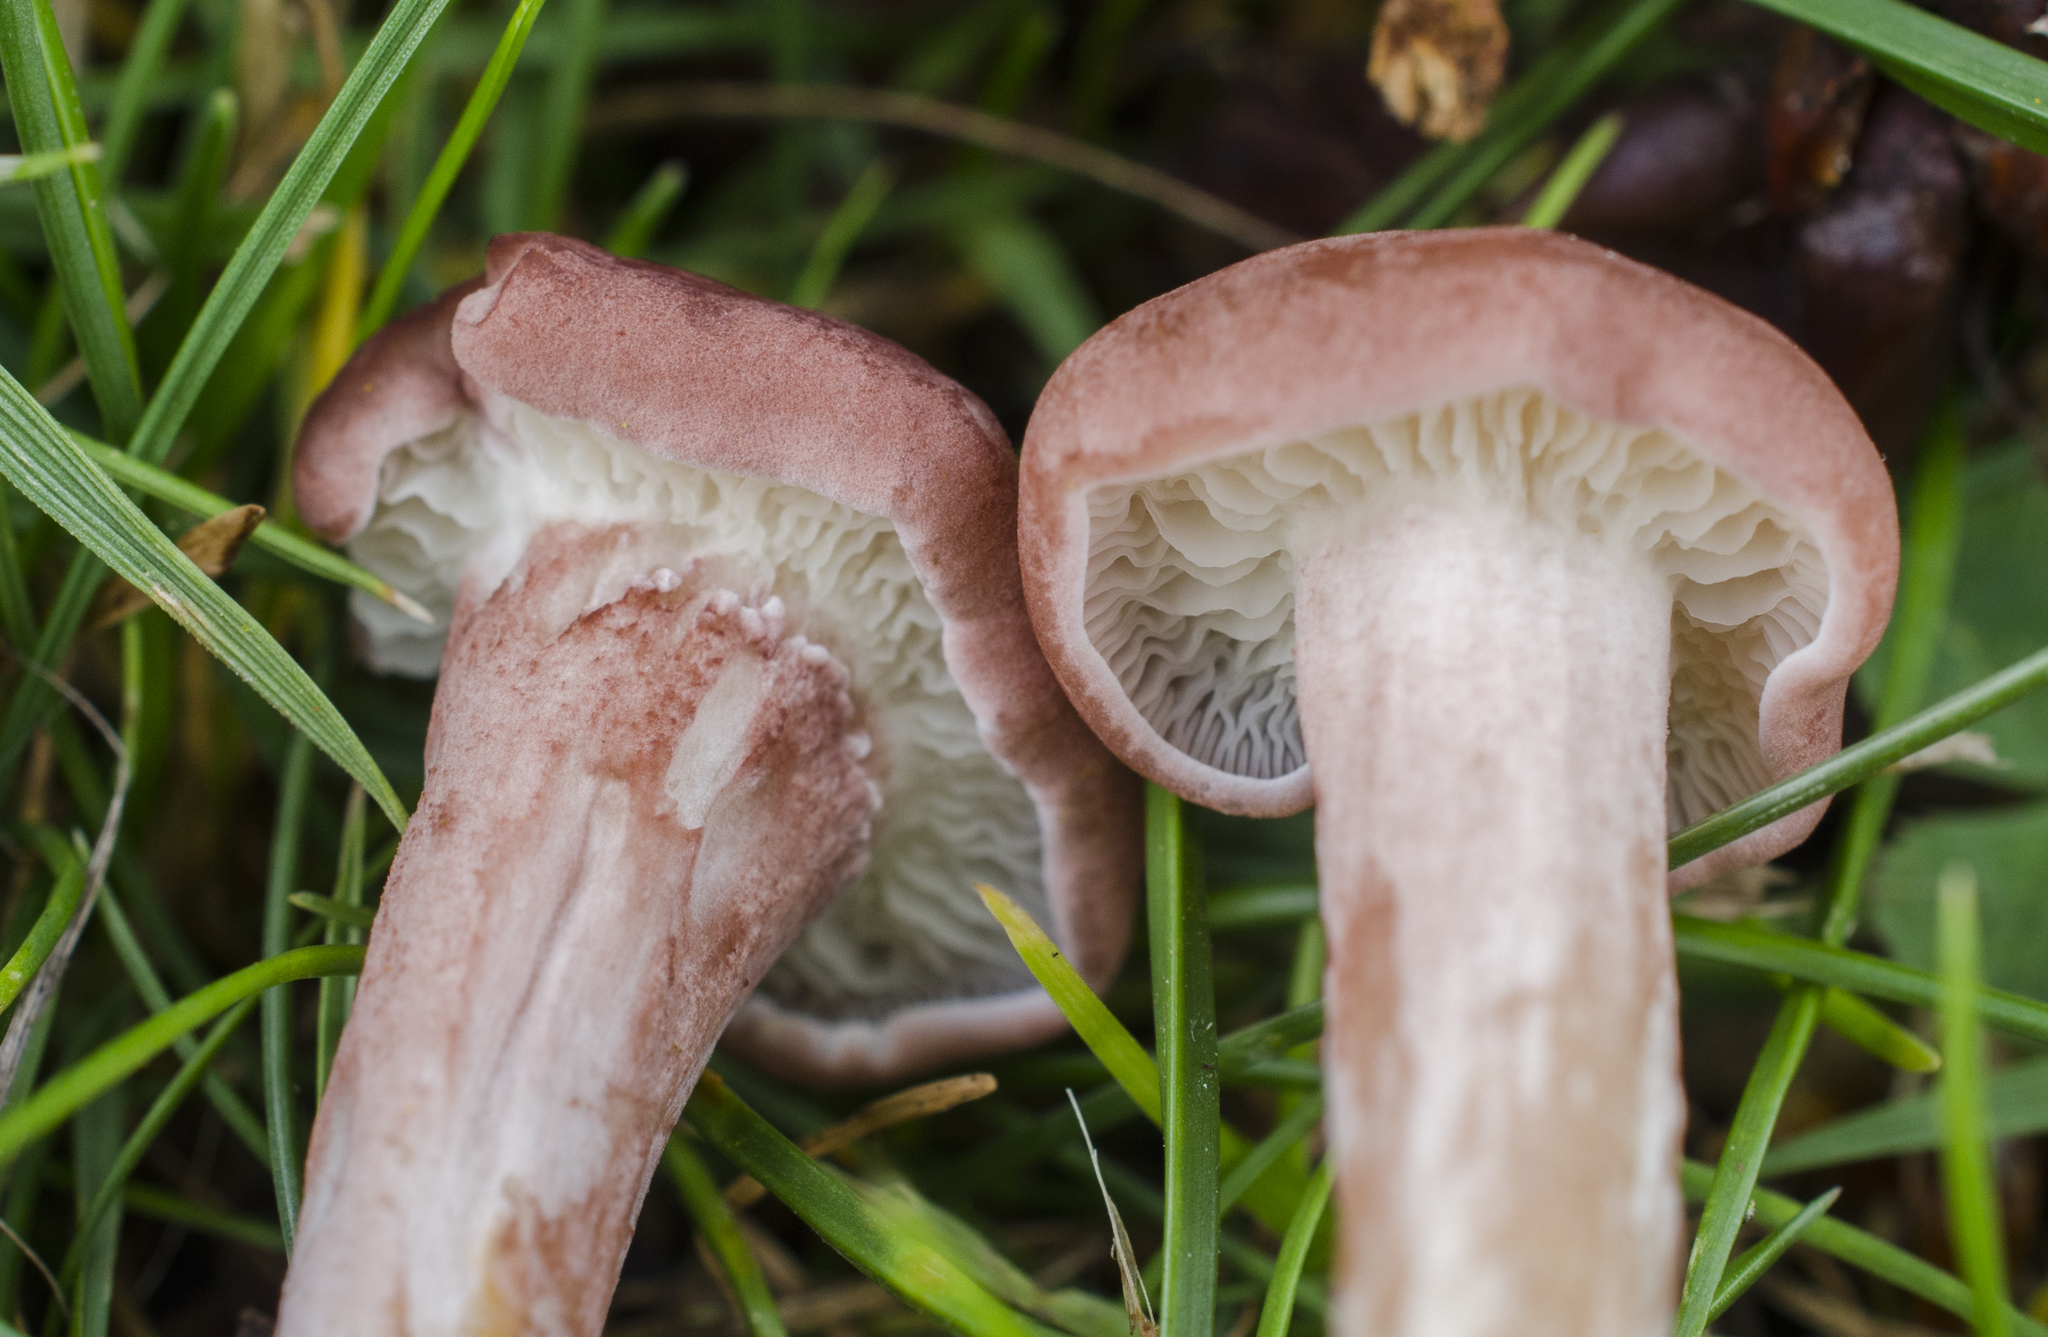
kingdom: Fungi
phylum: Basidiomycota
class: Agaricomycetes
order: Agaricales
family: Lyophyllaceae
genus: Calocybe
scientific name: Calocybe carnea
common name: Pink domecap
